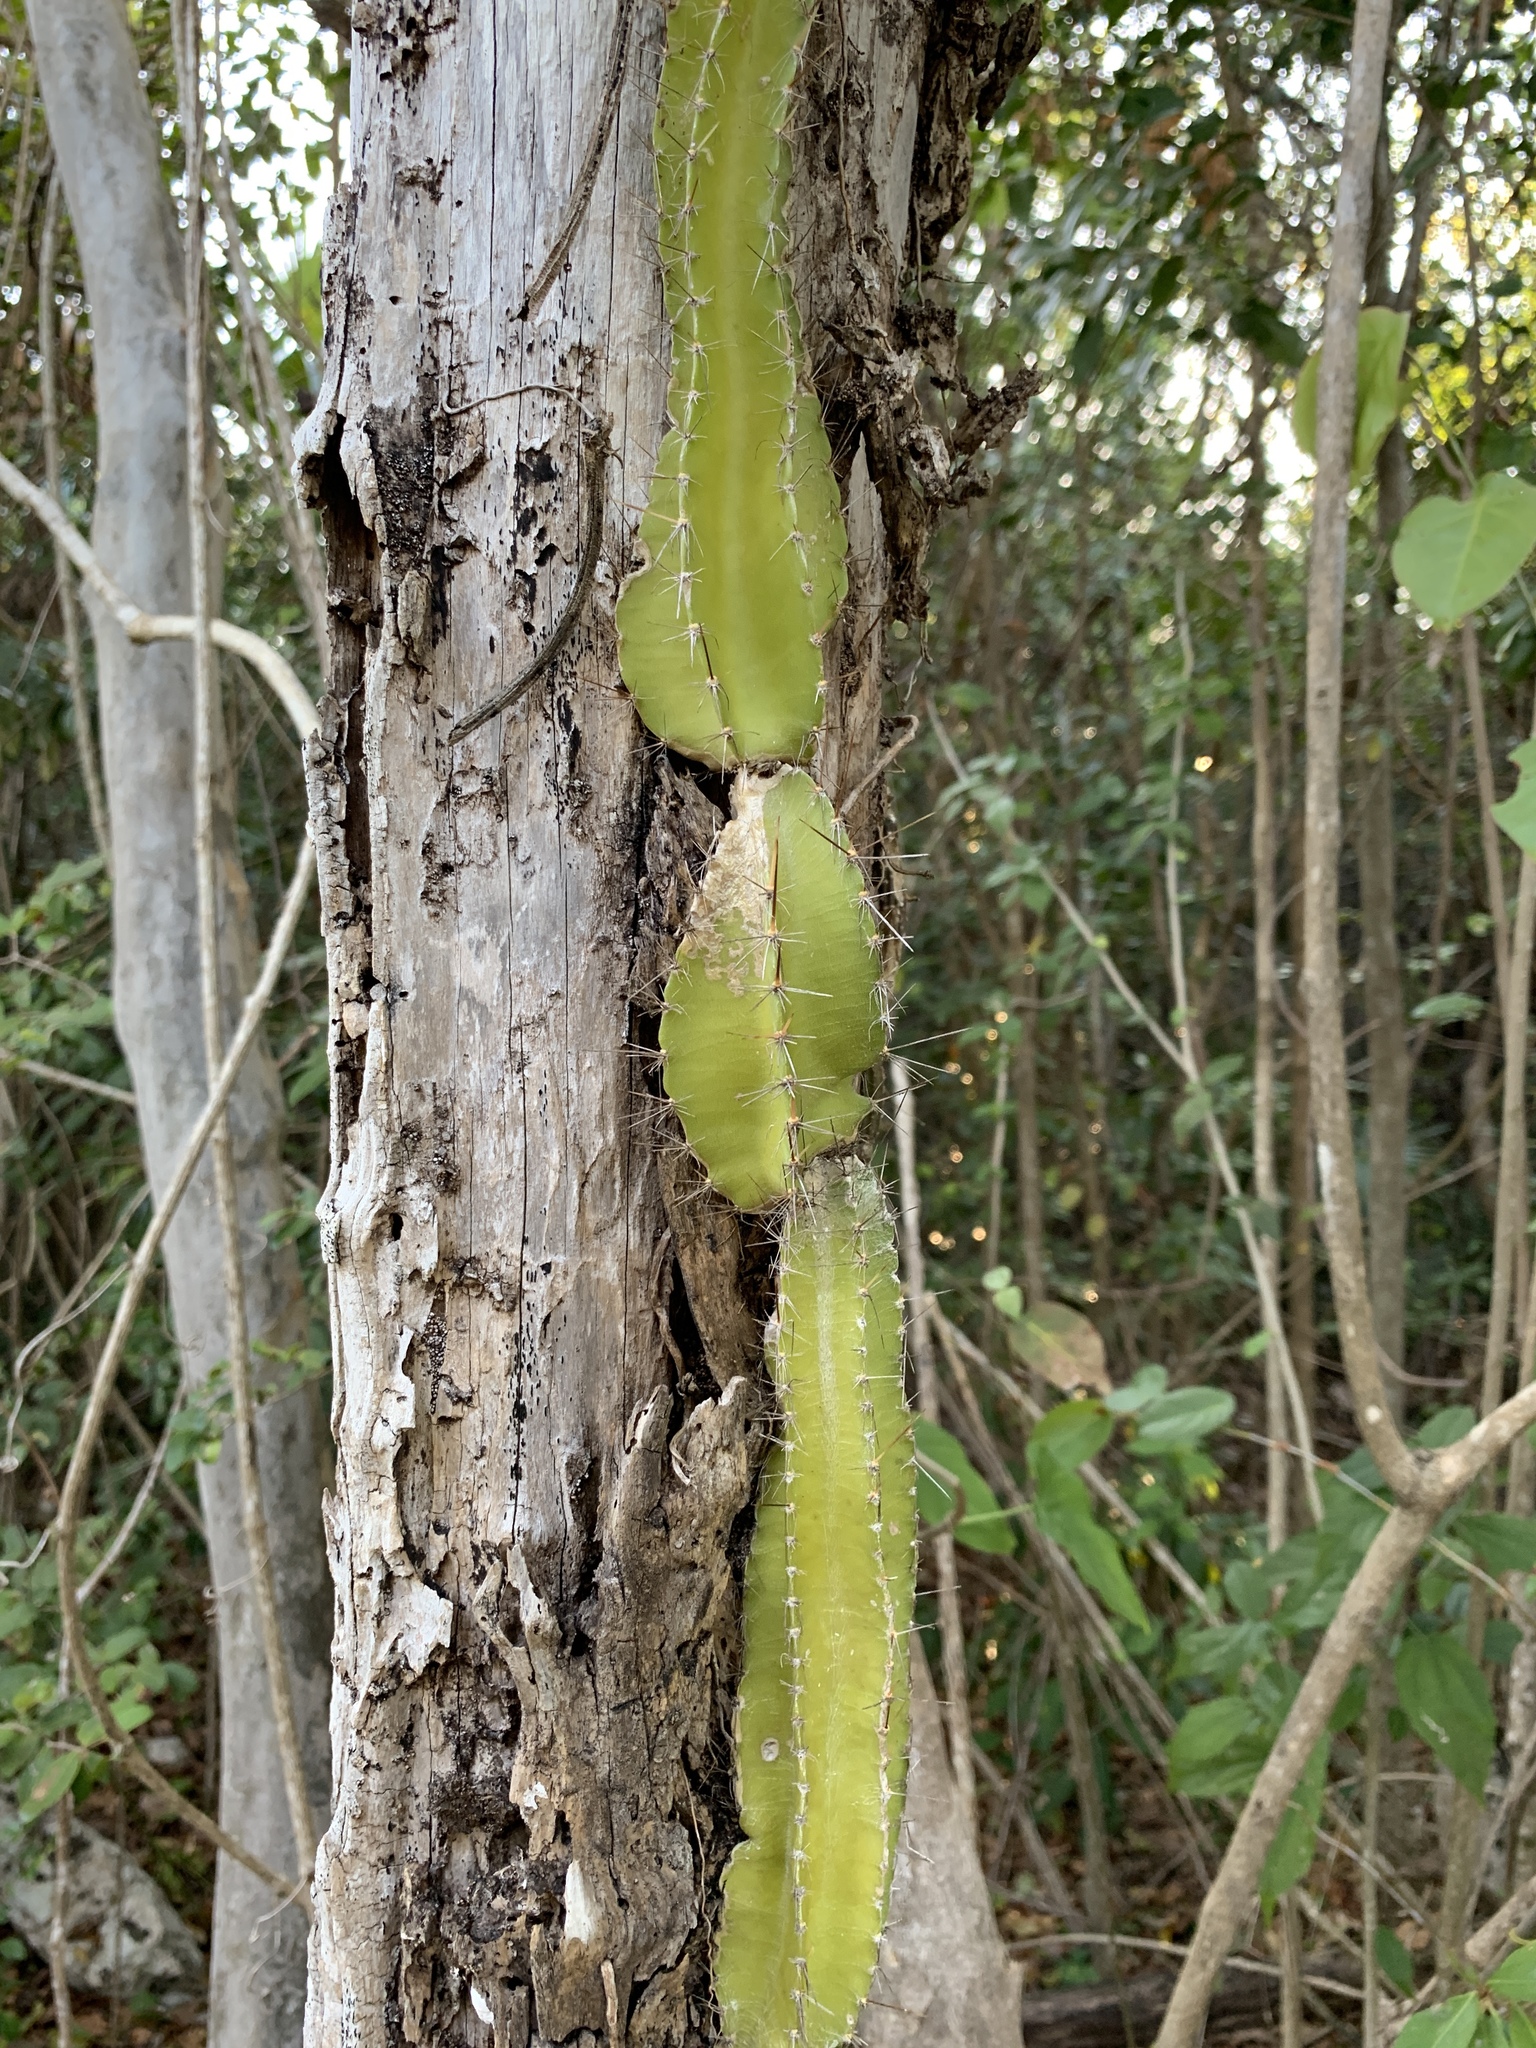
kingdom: Plantae
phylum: Tracheophyta
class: Magnoliopsida
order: Caryophyllales
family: Cactaceae
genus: Deamia
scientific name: Deamia testudo
